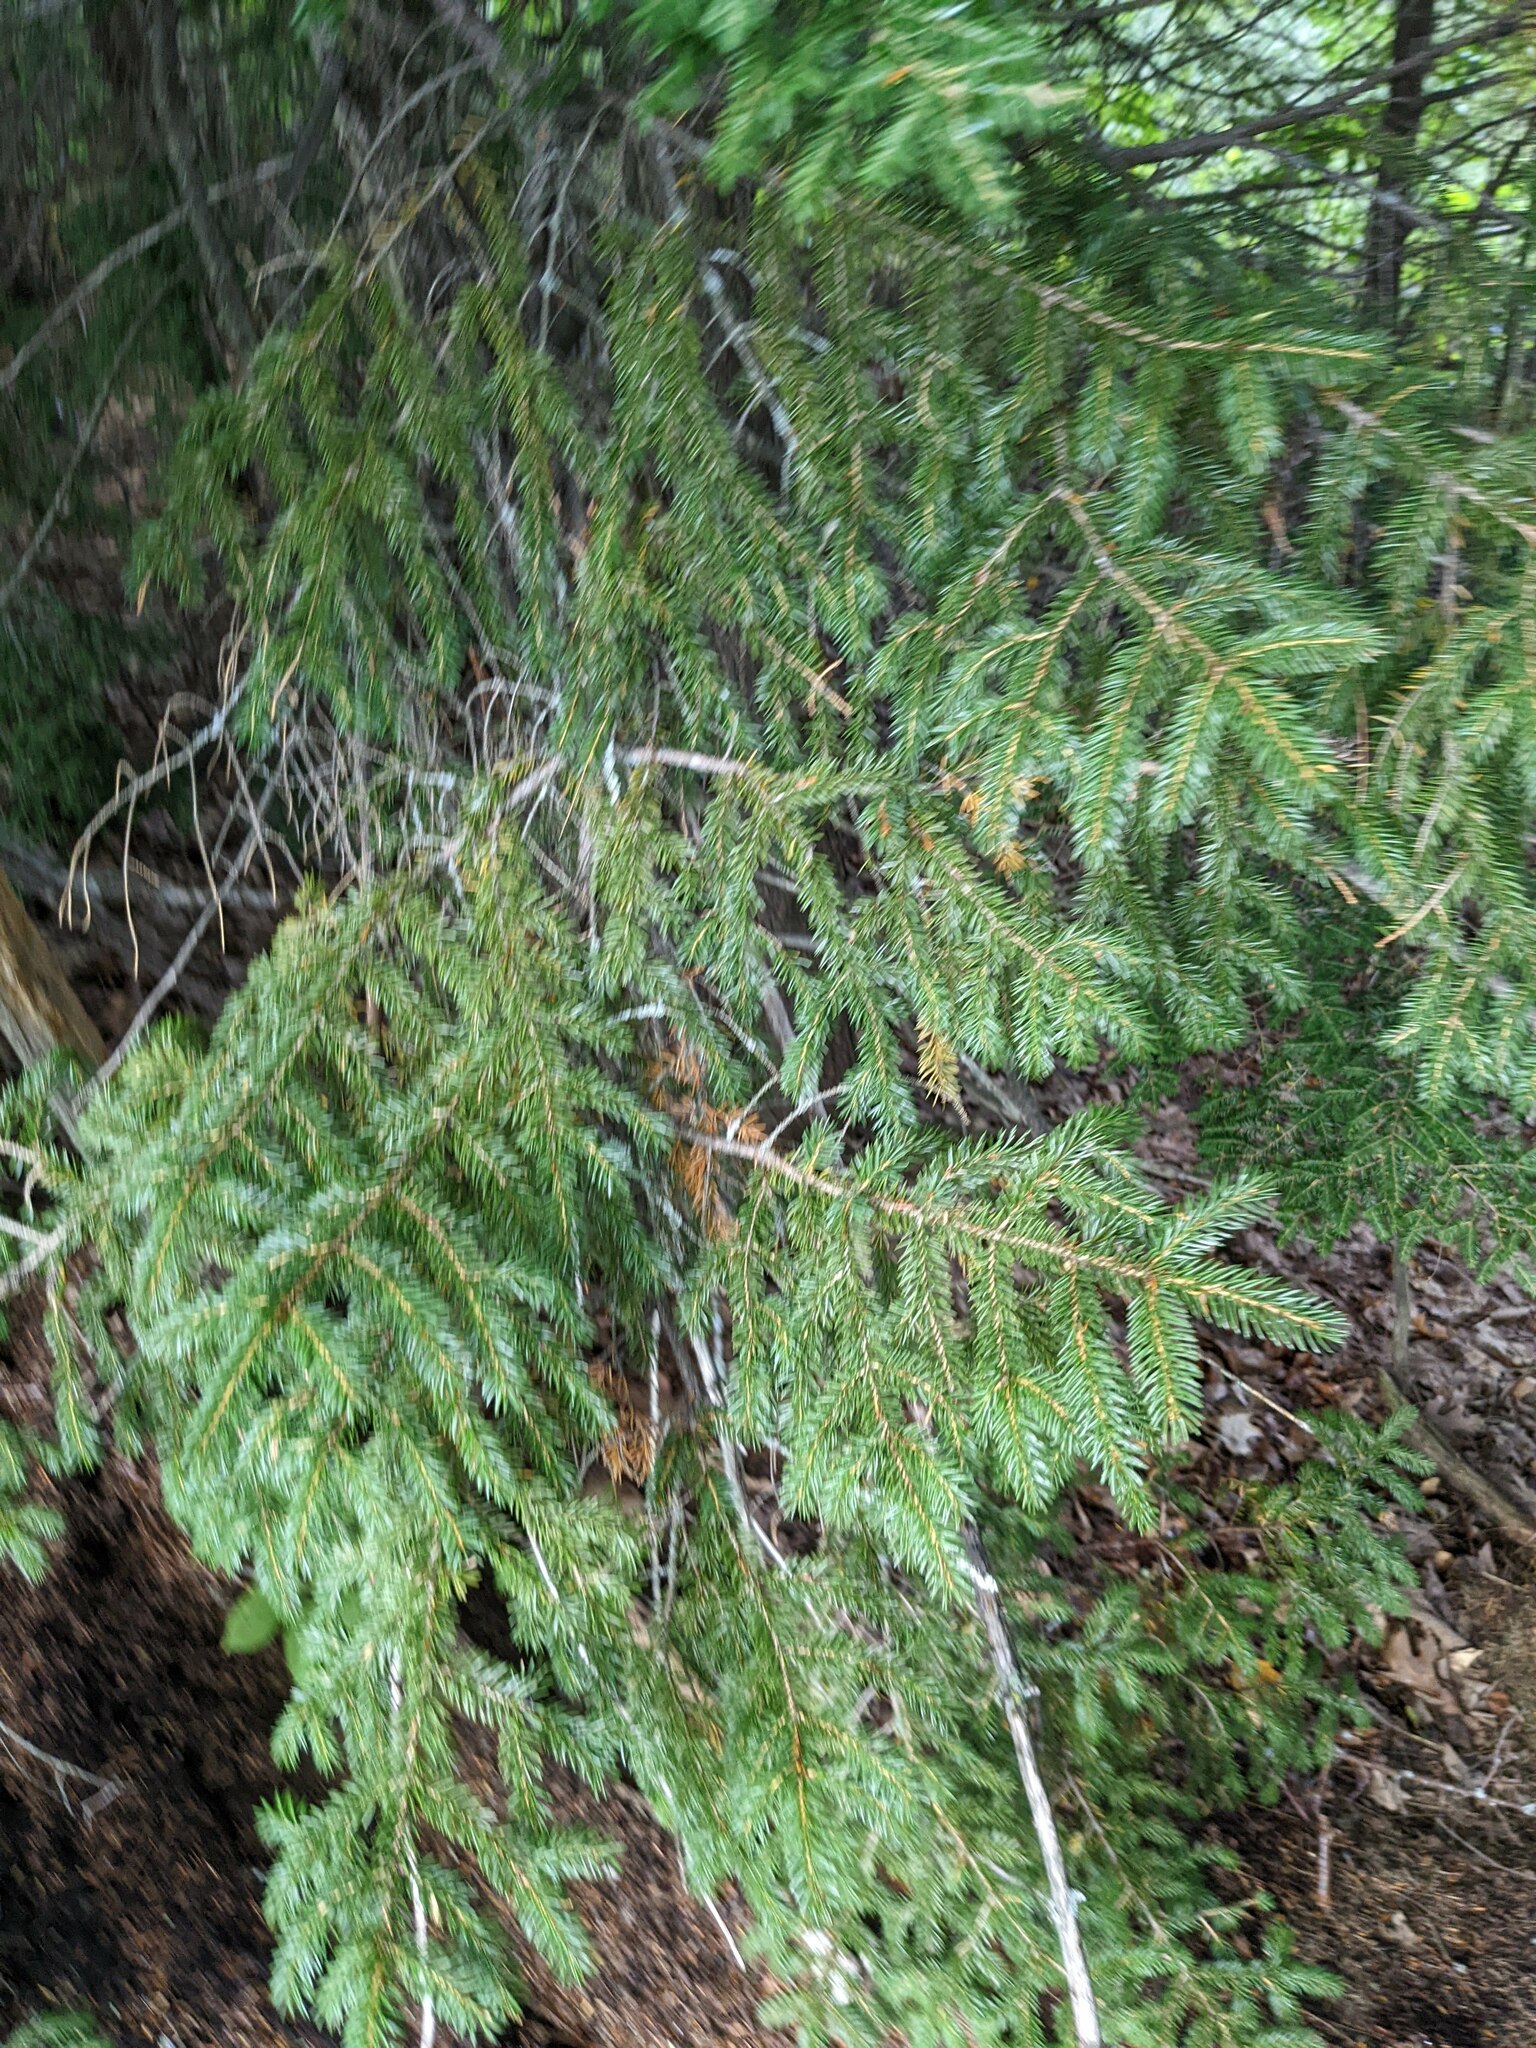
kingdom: Plantae
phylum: Tracheophyta
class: Pinopsida
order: Pinales
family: Pinaceae
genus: Picea
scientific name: Picea rubens
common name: Red spruce
